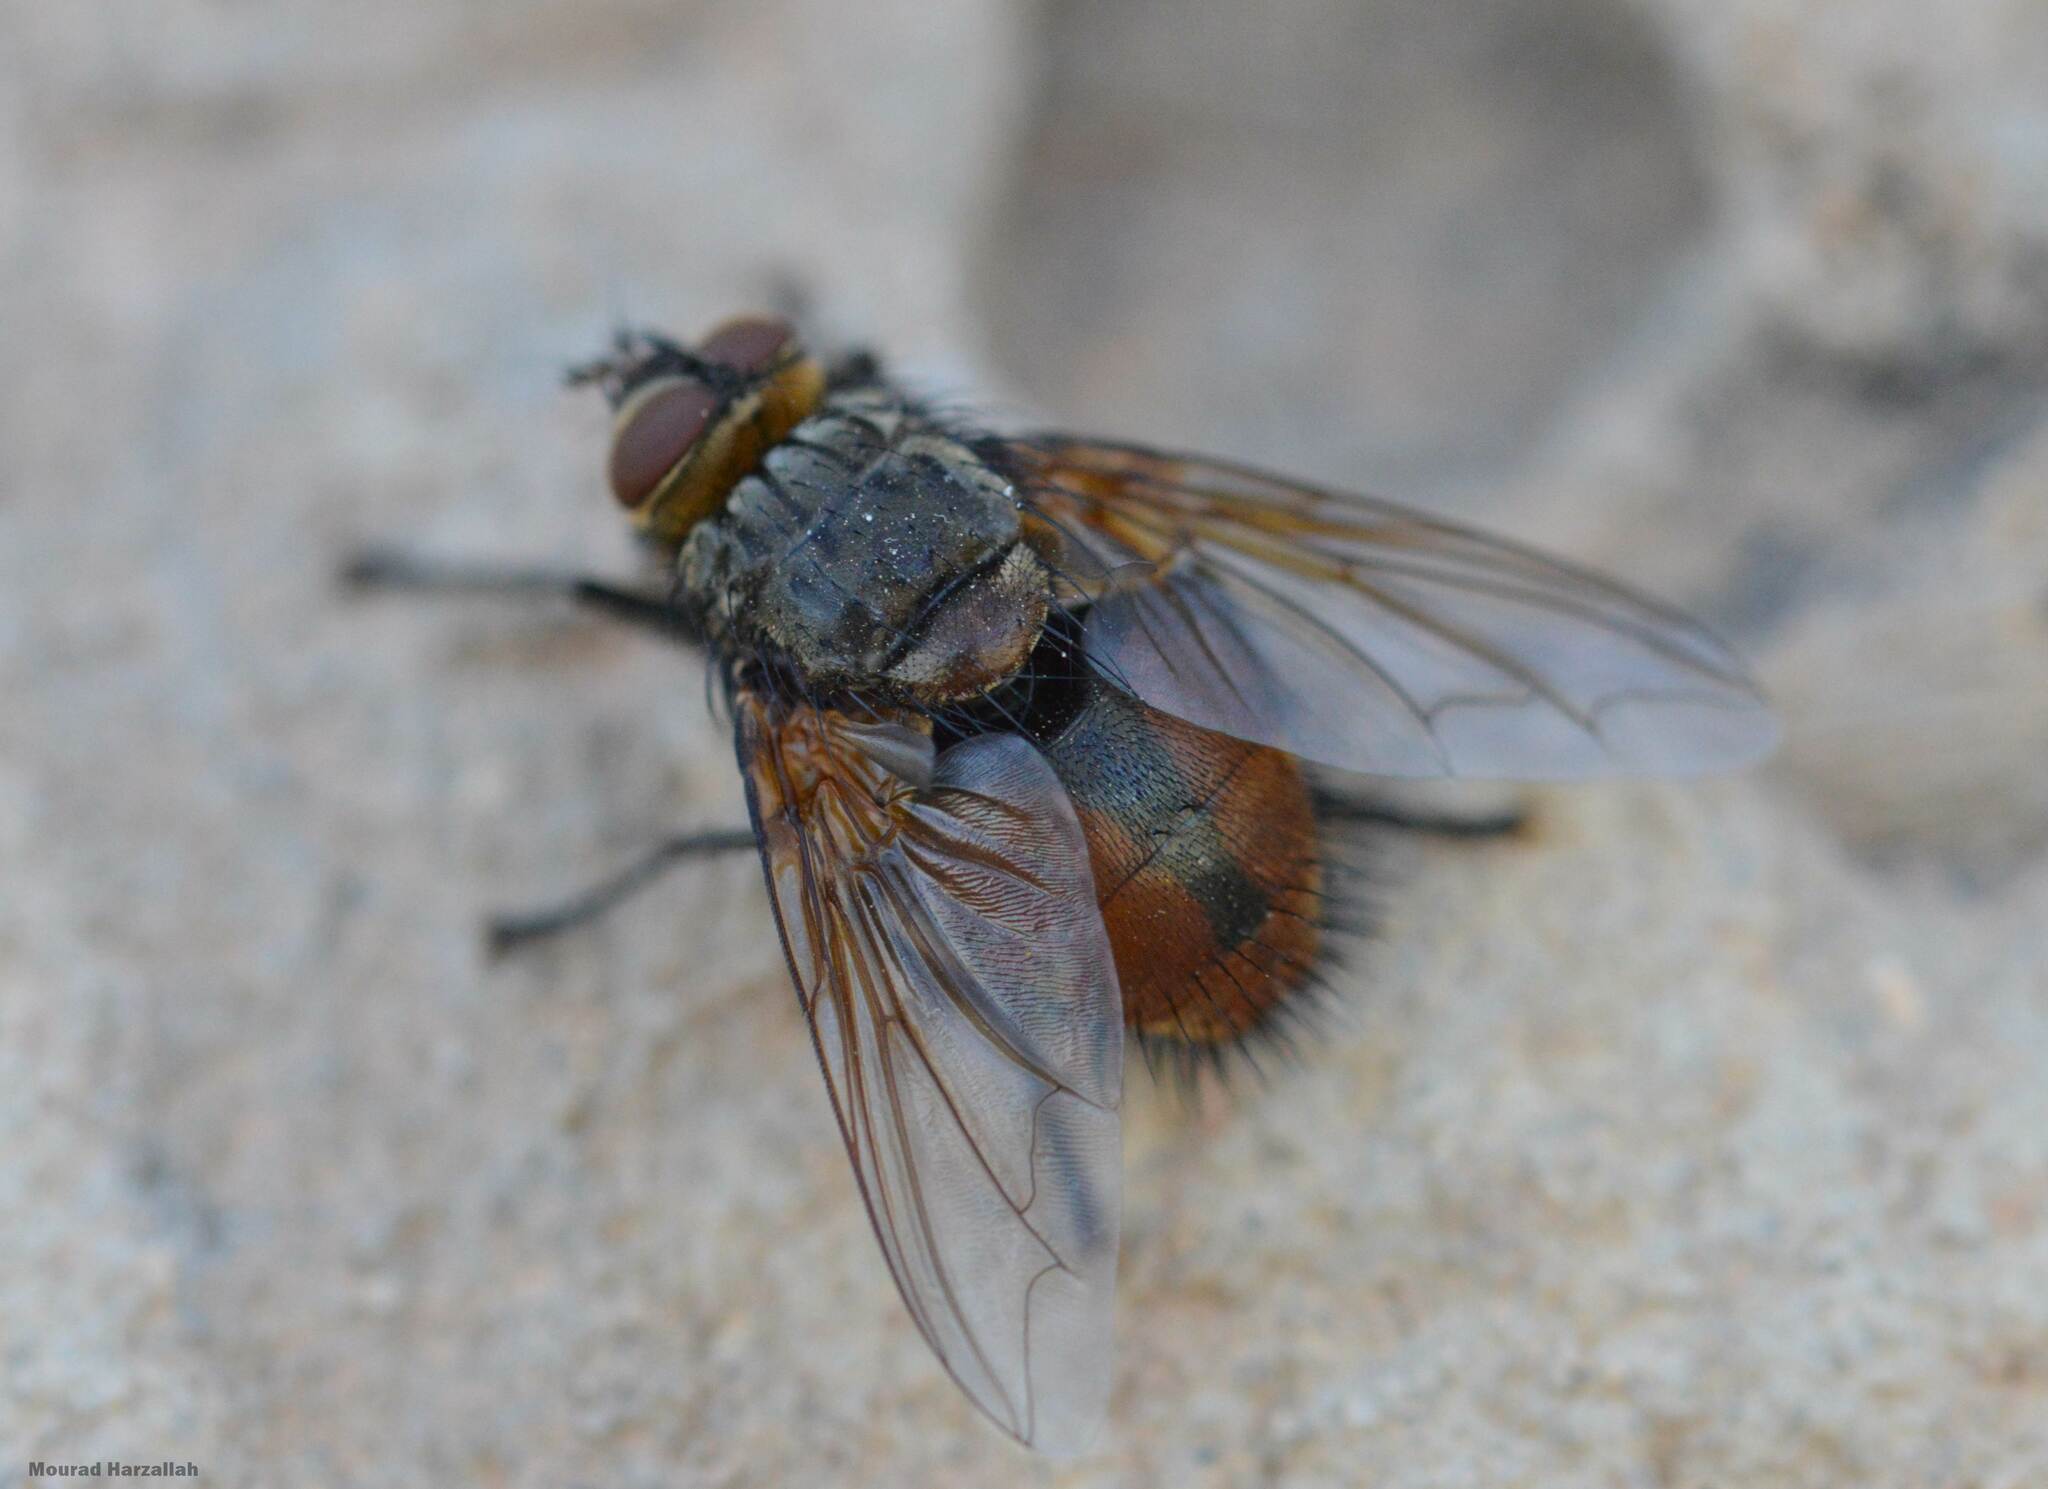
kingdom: Animalia
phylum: Arthropoda
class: Insecta
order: Diptera
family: Tachinidae
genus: Nemoraea
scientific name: Nemoraea pellucida
